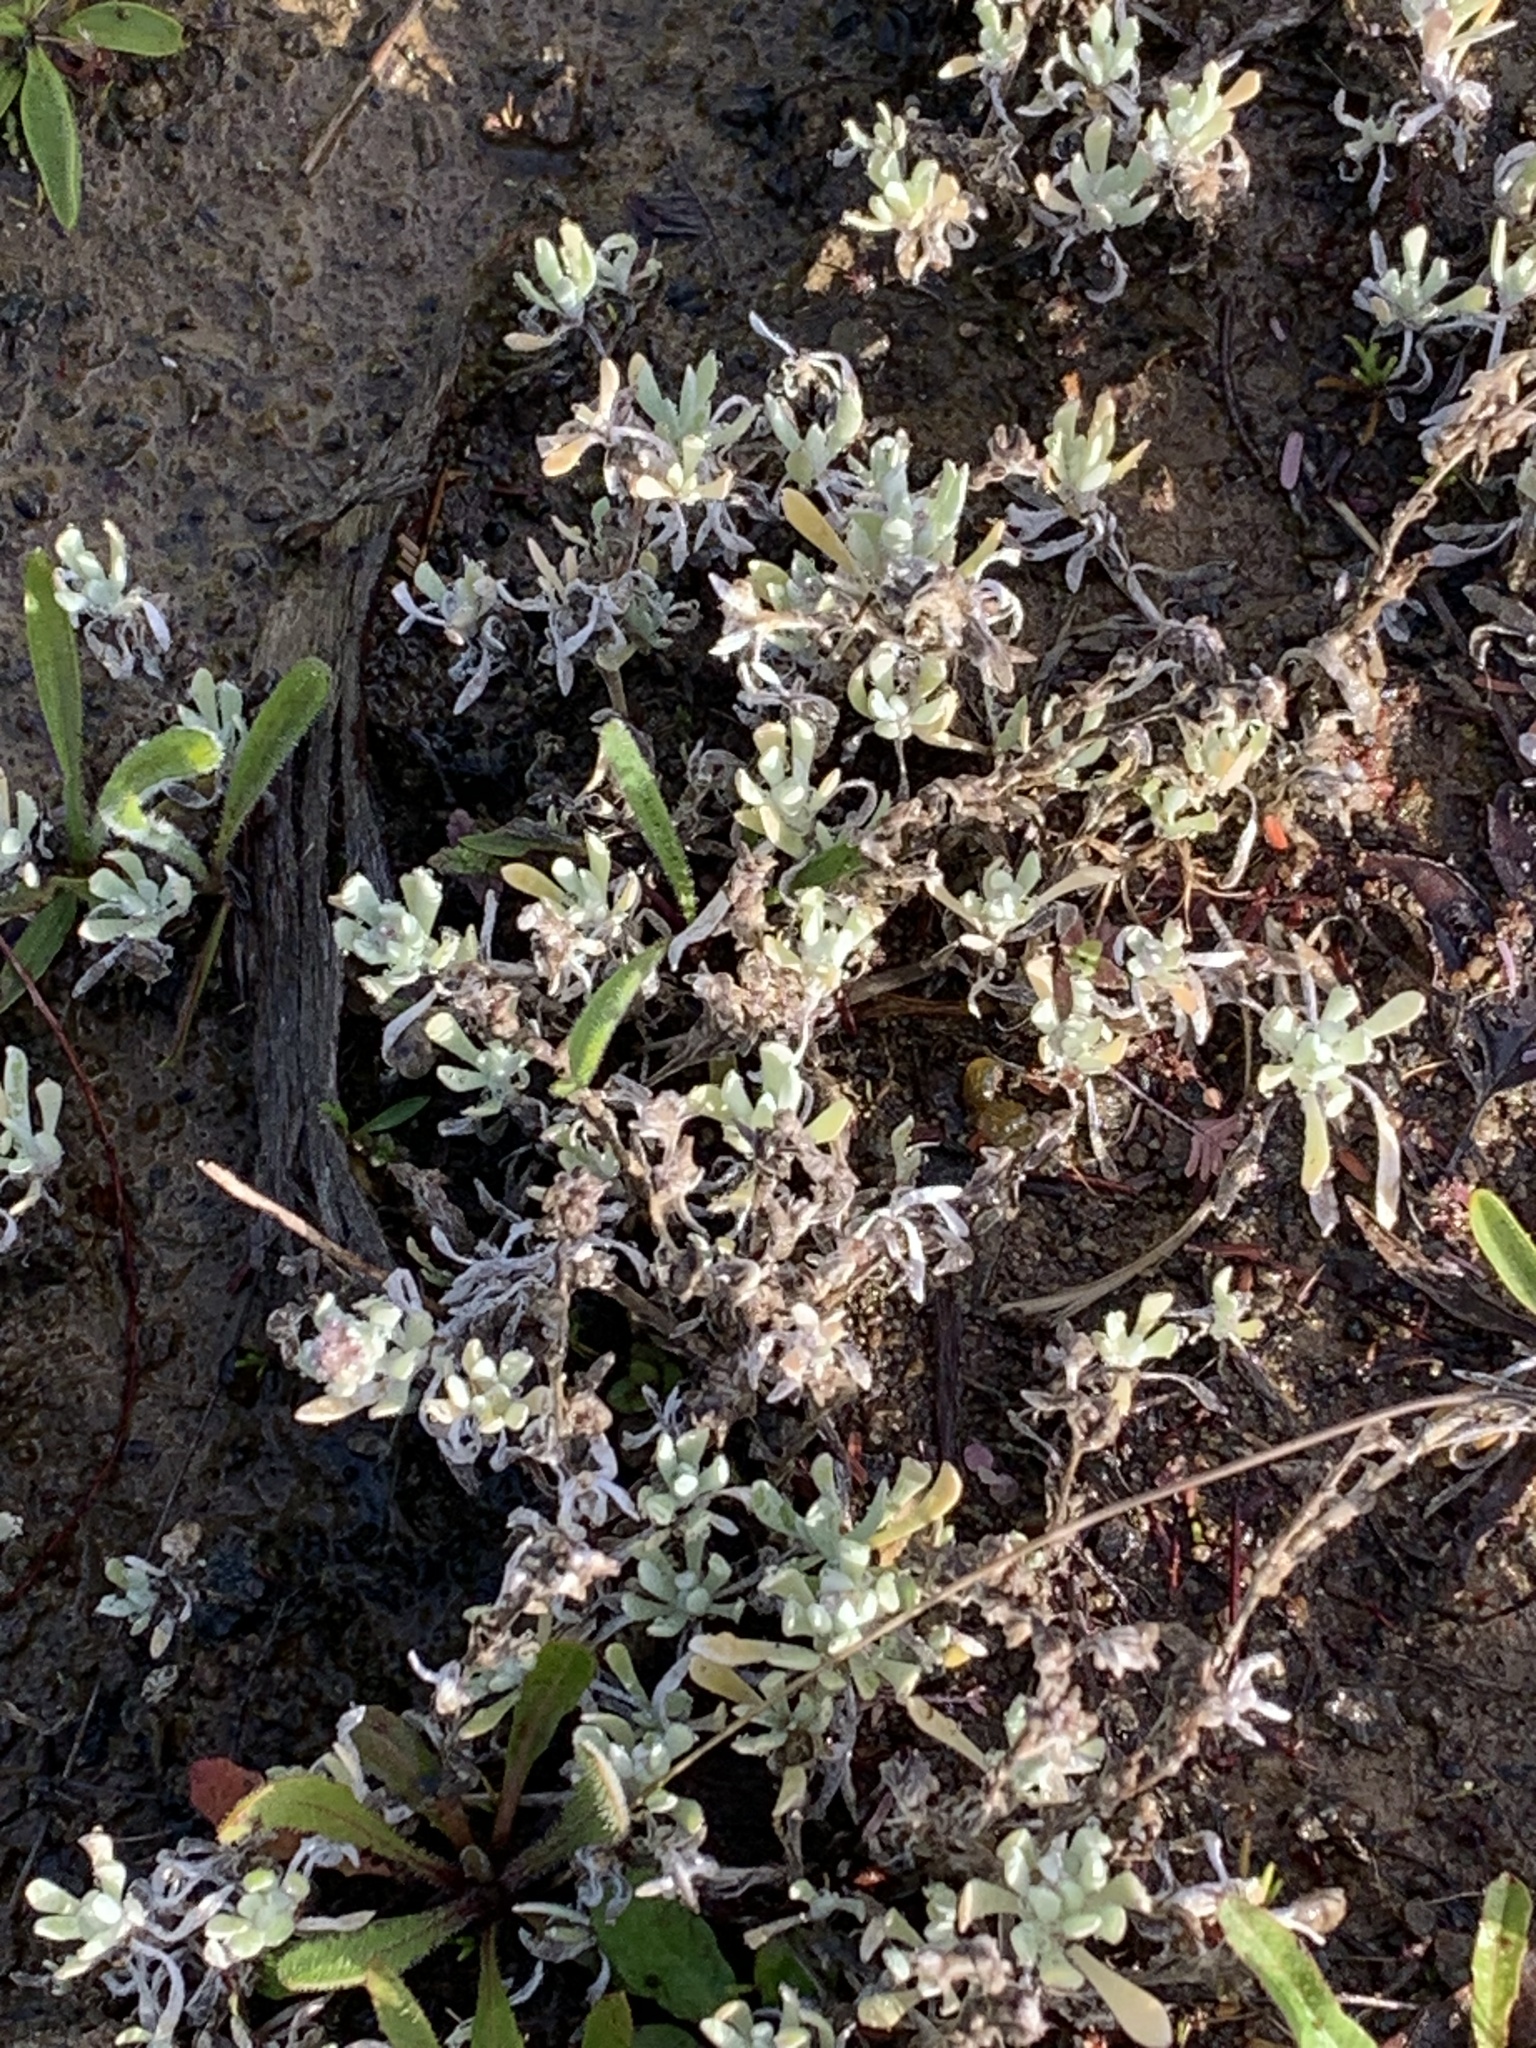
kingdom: Plantae
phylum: Tracheophyta
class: Magnoliopsida
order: Asterales
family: Asteraceae
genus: Vellereophyton
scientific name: Vellereophyton dealbatum
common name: White-cudweed
